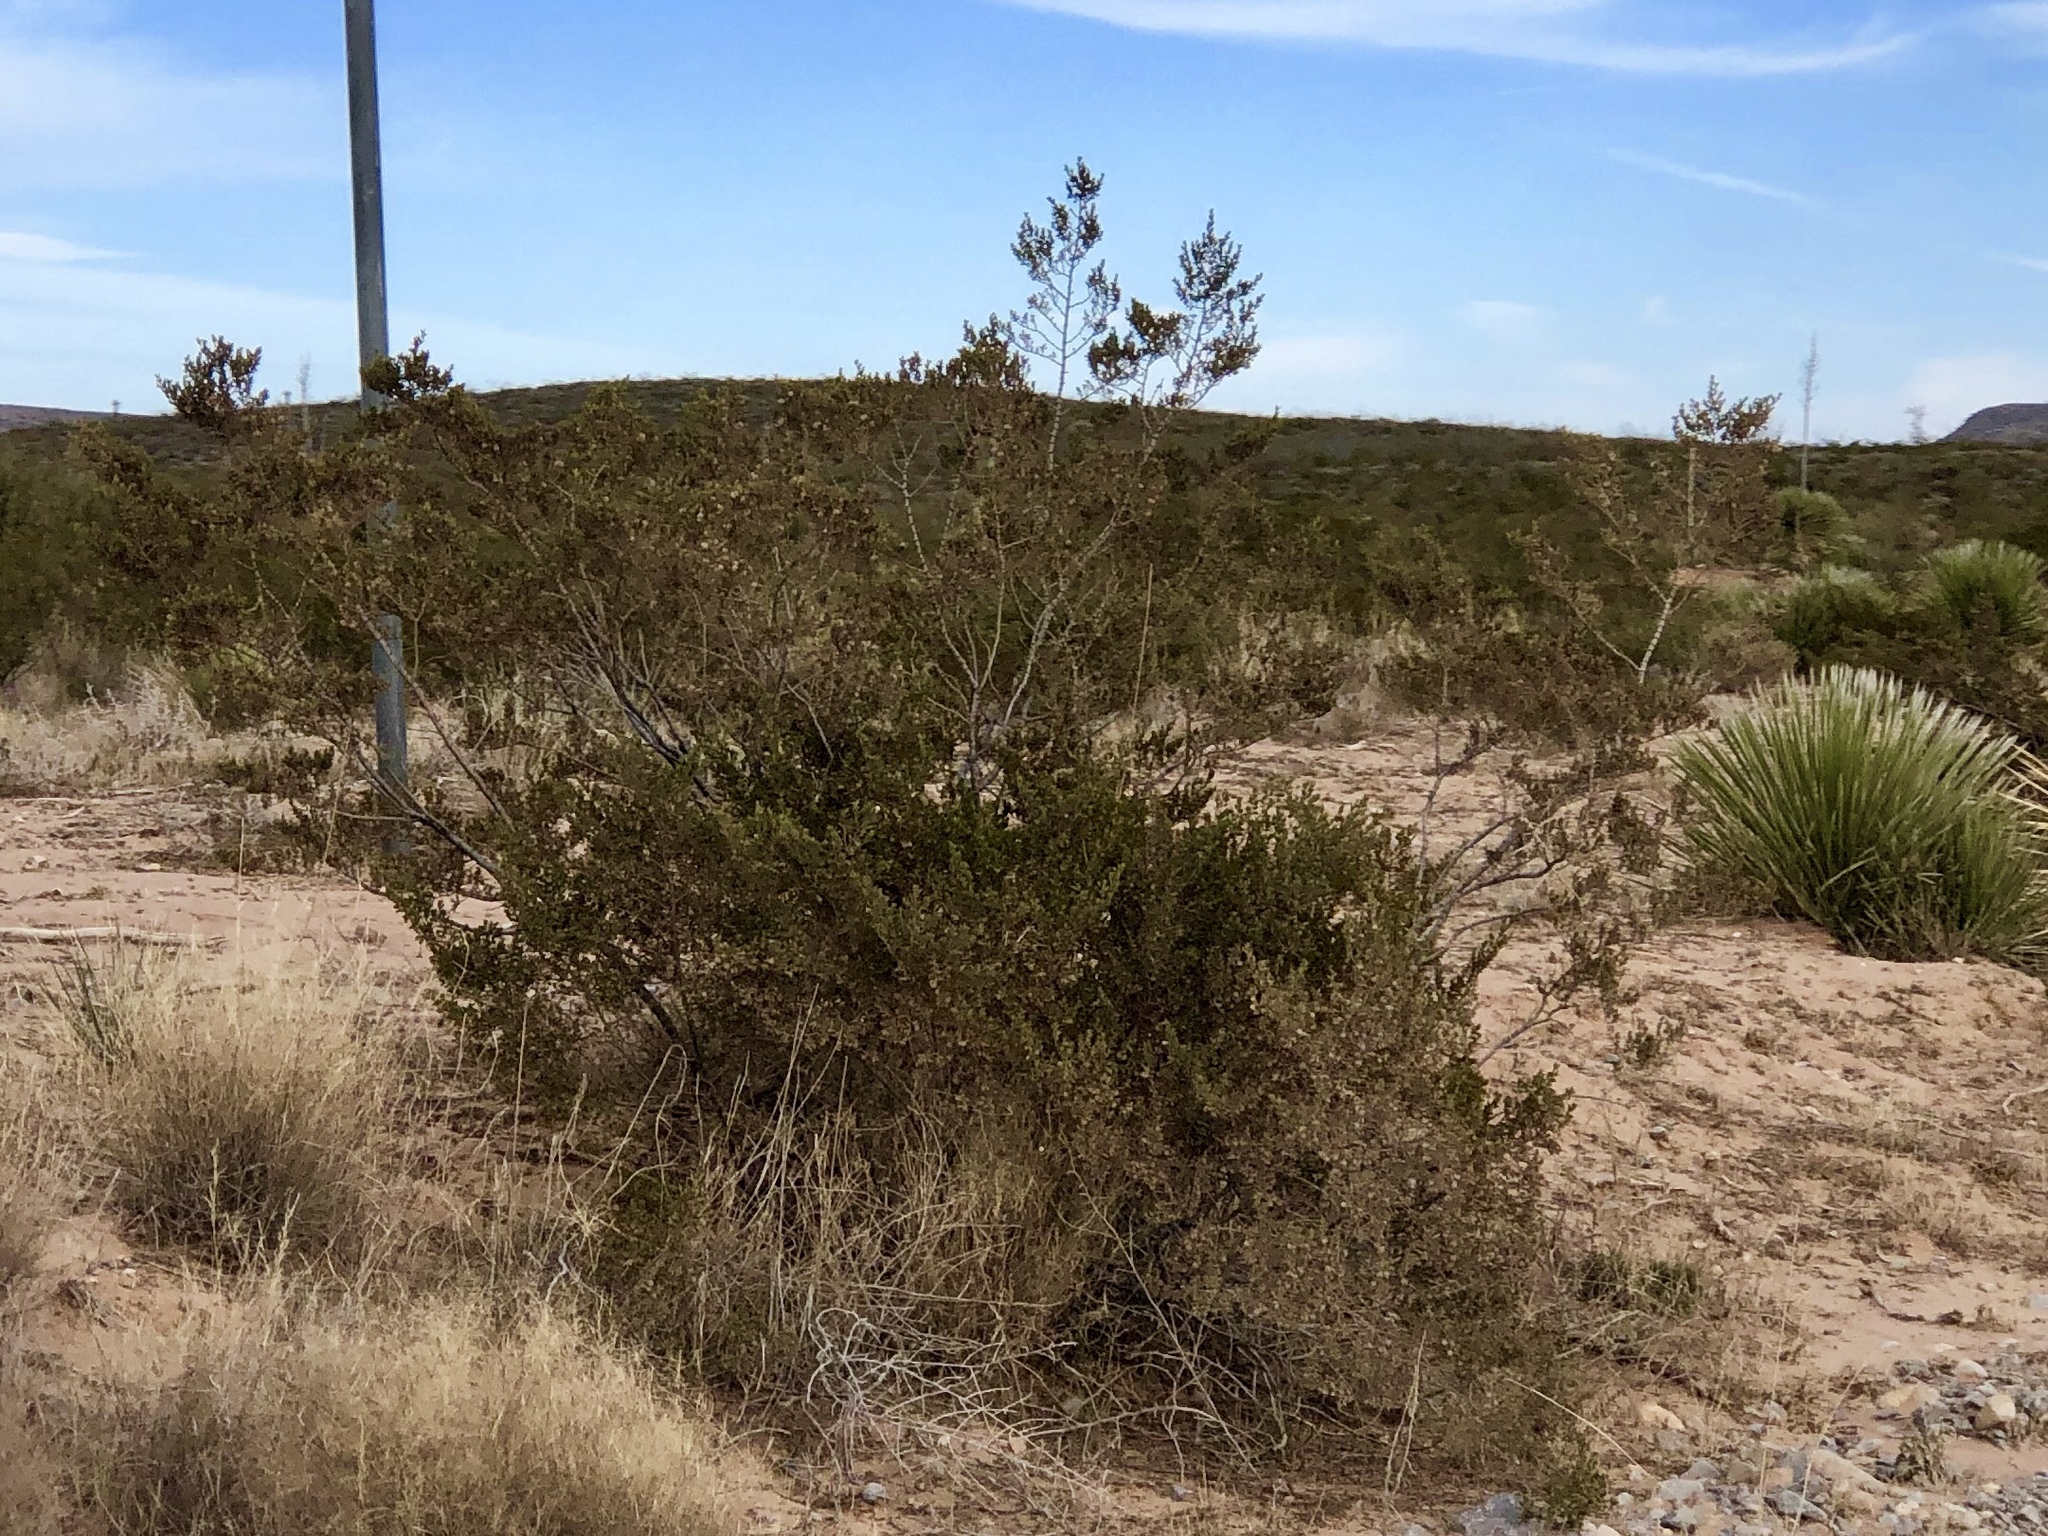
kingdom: Plantae
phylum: Tracheophyta
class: Magnoliopsida
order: Zygophyllales
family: Zygophyllaceae
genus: Larrea
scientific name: Larrea tridentata
